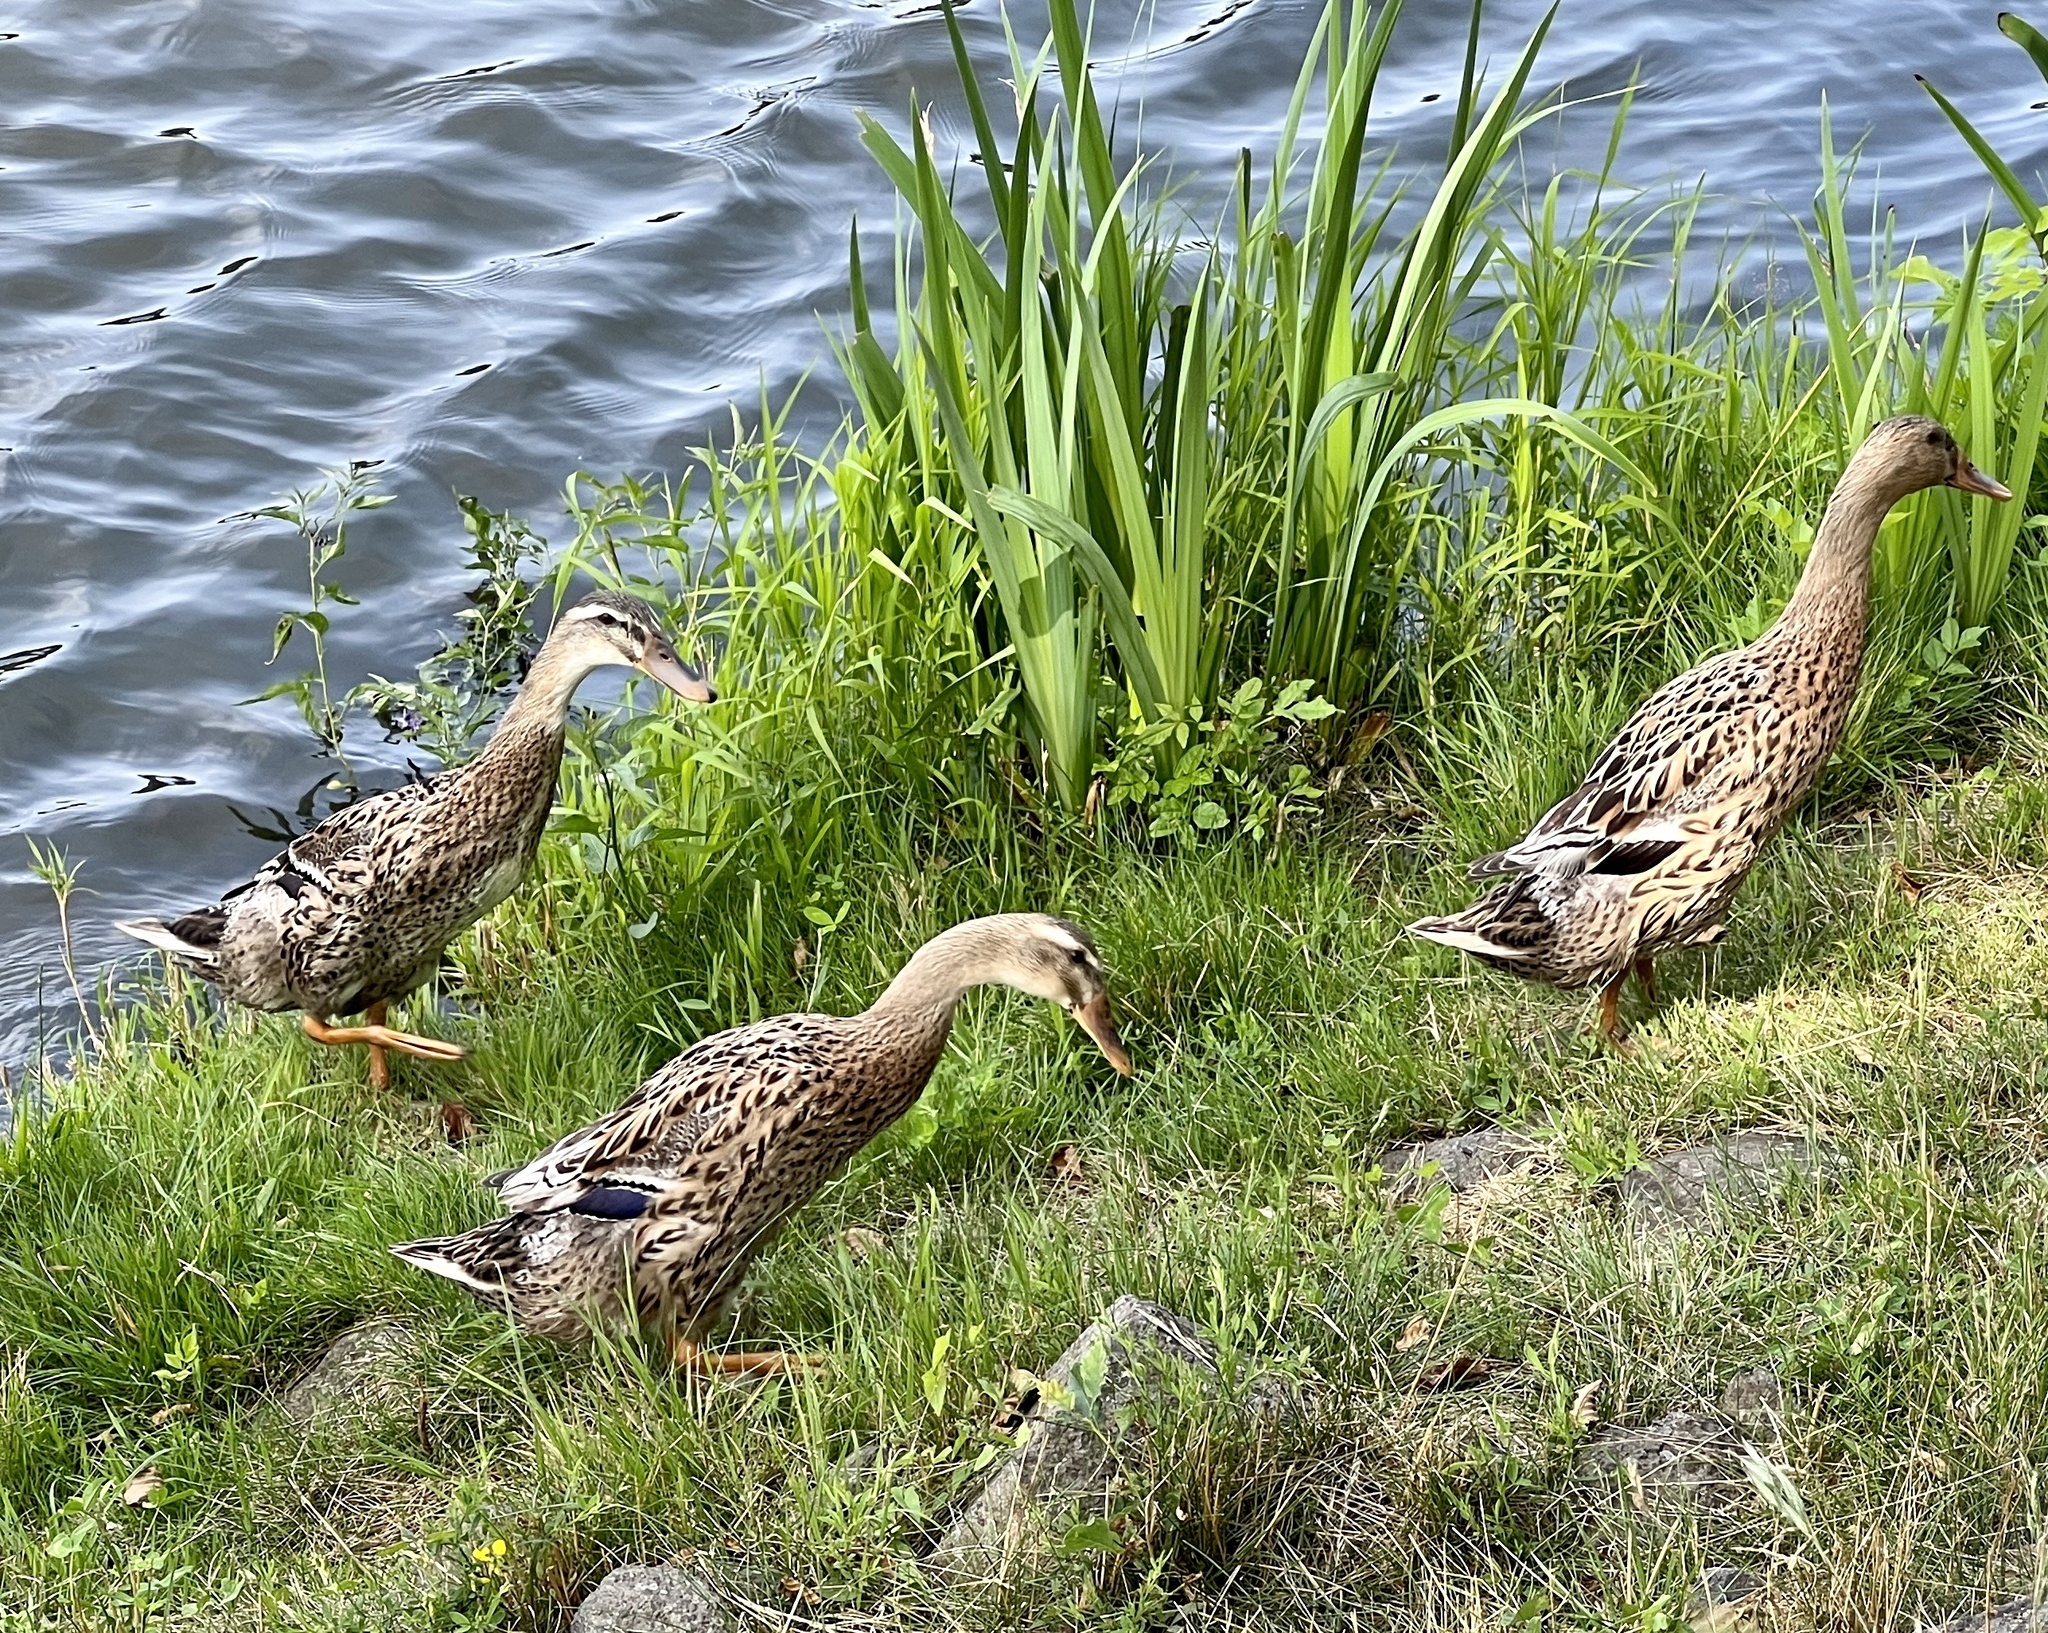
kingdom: Animalia
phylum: Chordata
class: Aves
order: Anseriformes
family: Anatidae
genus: Anas
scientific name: Anas platyrhynchos
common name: Mallard
